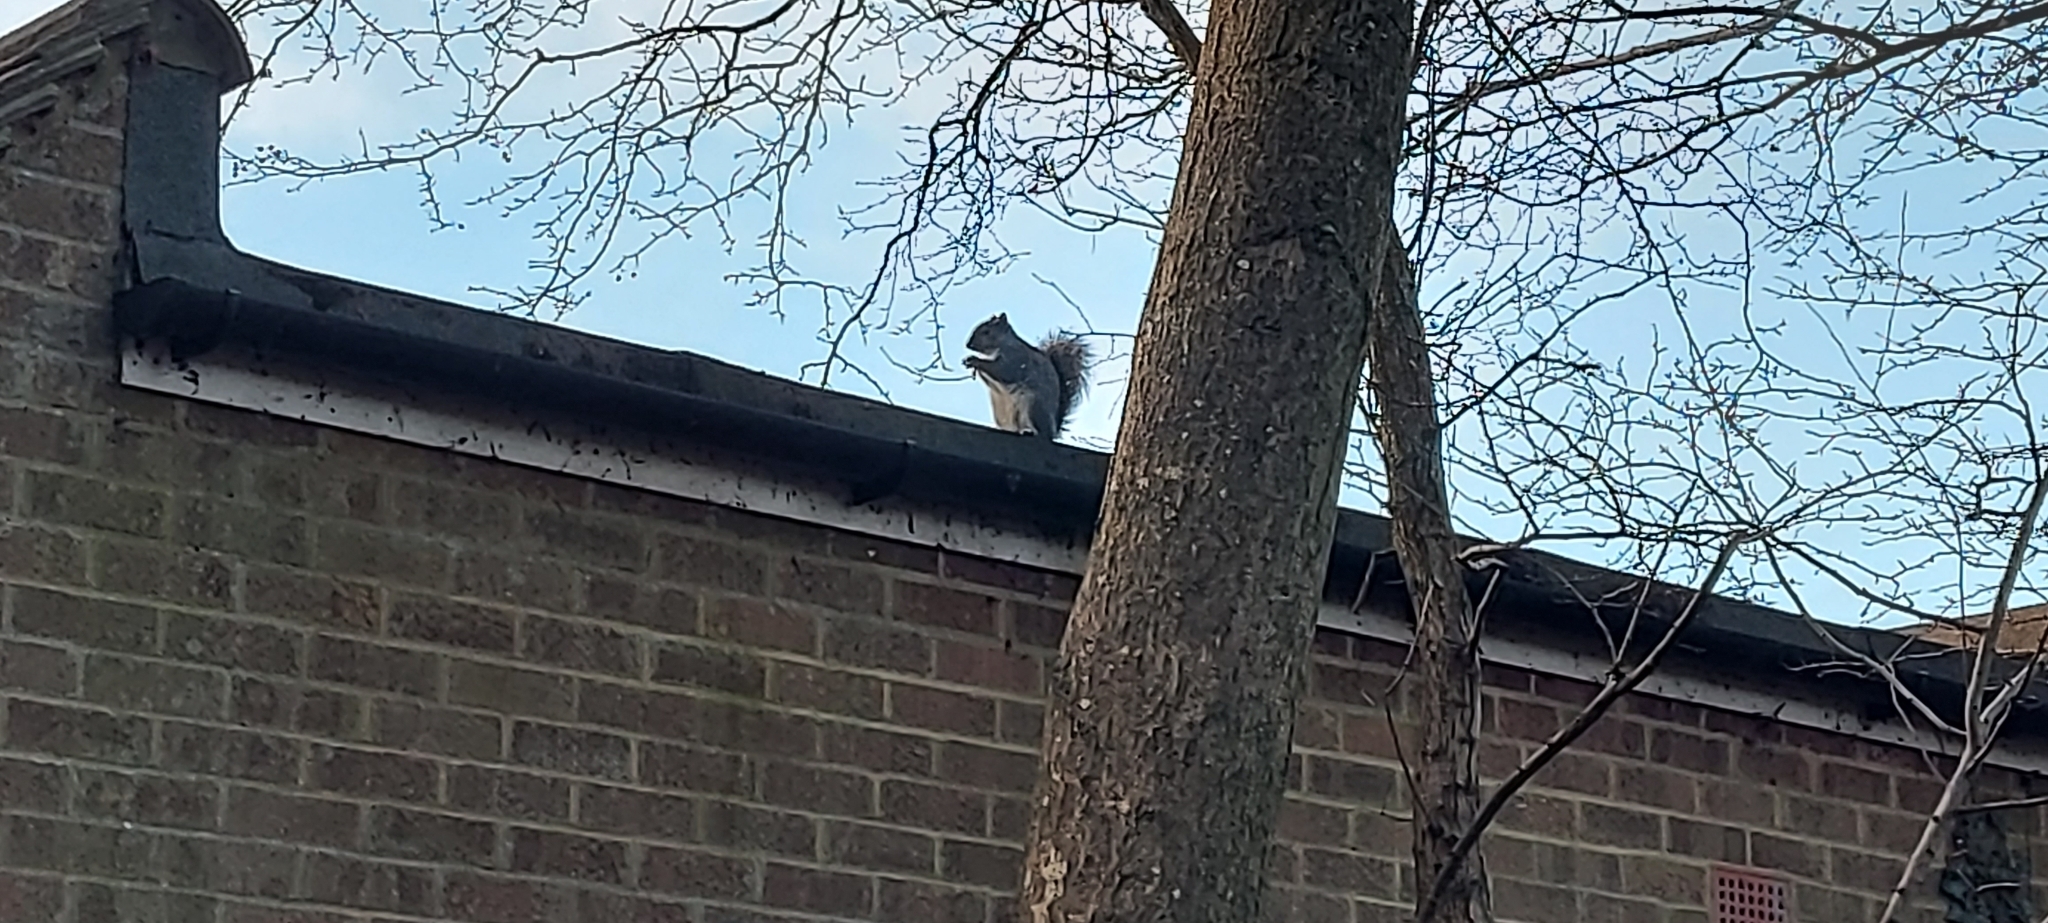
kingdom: Animalia
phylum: Chordata
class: Mammalia
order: Rodentia
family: Sciuridae
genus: Sciurus
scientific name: Sciurus carolinensis
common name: Eastern gray squirrel
